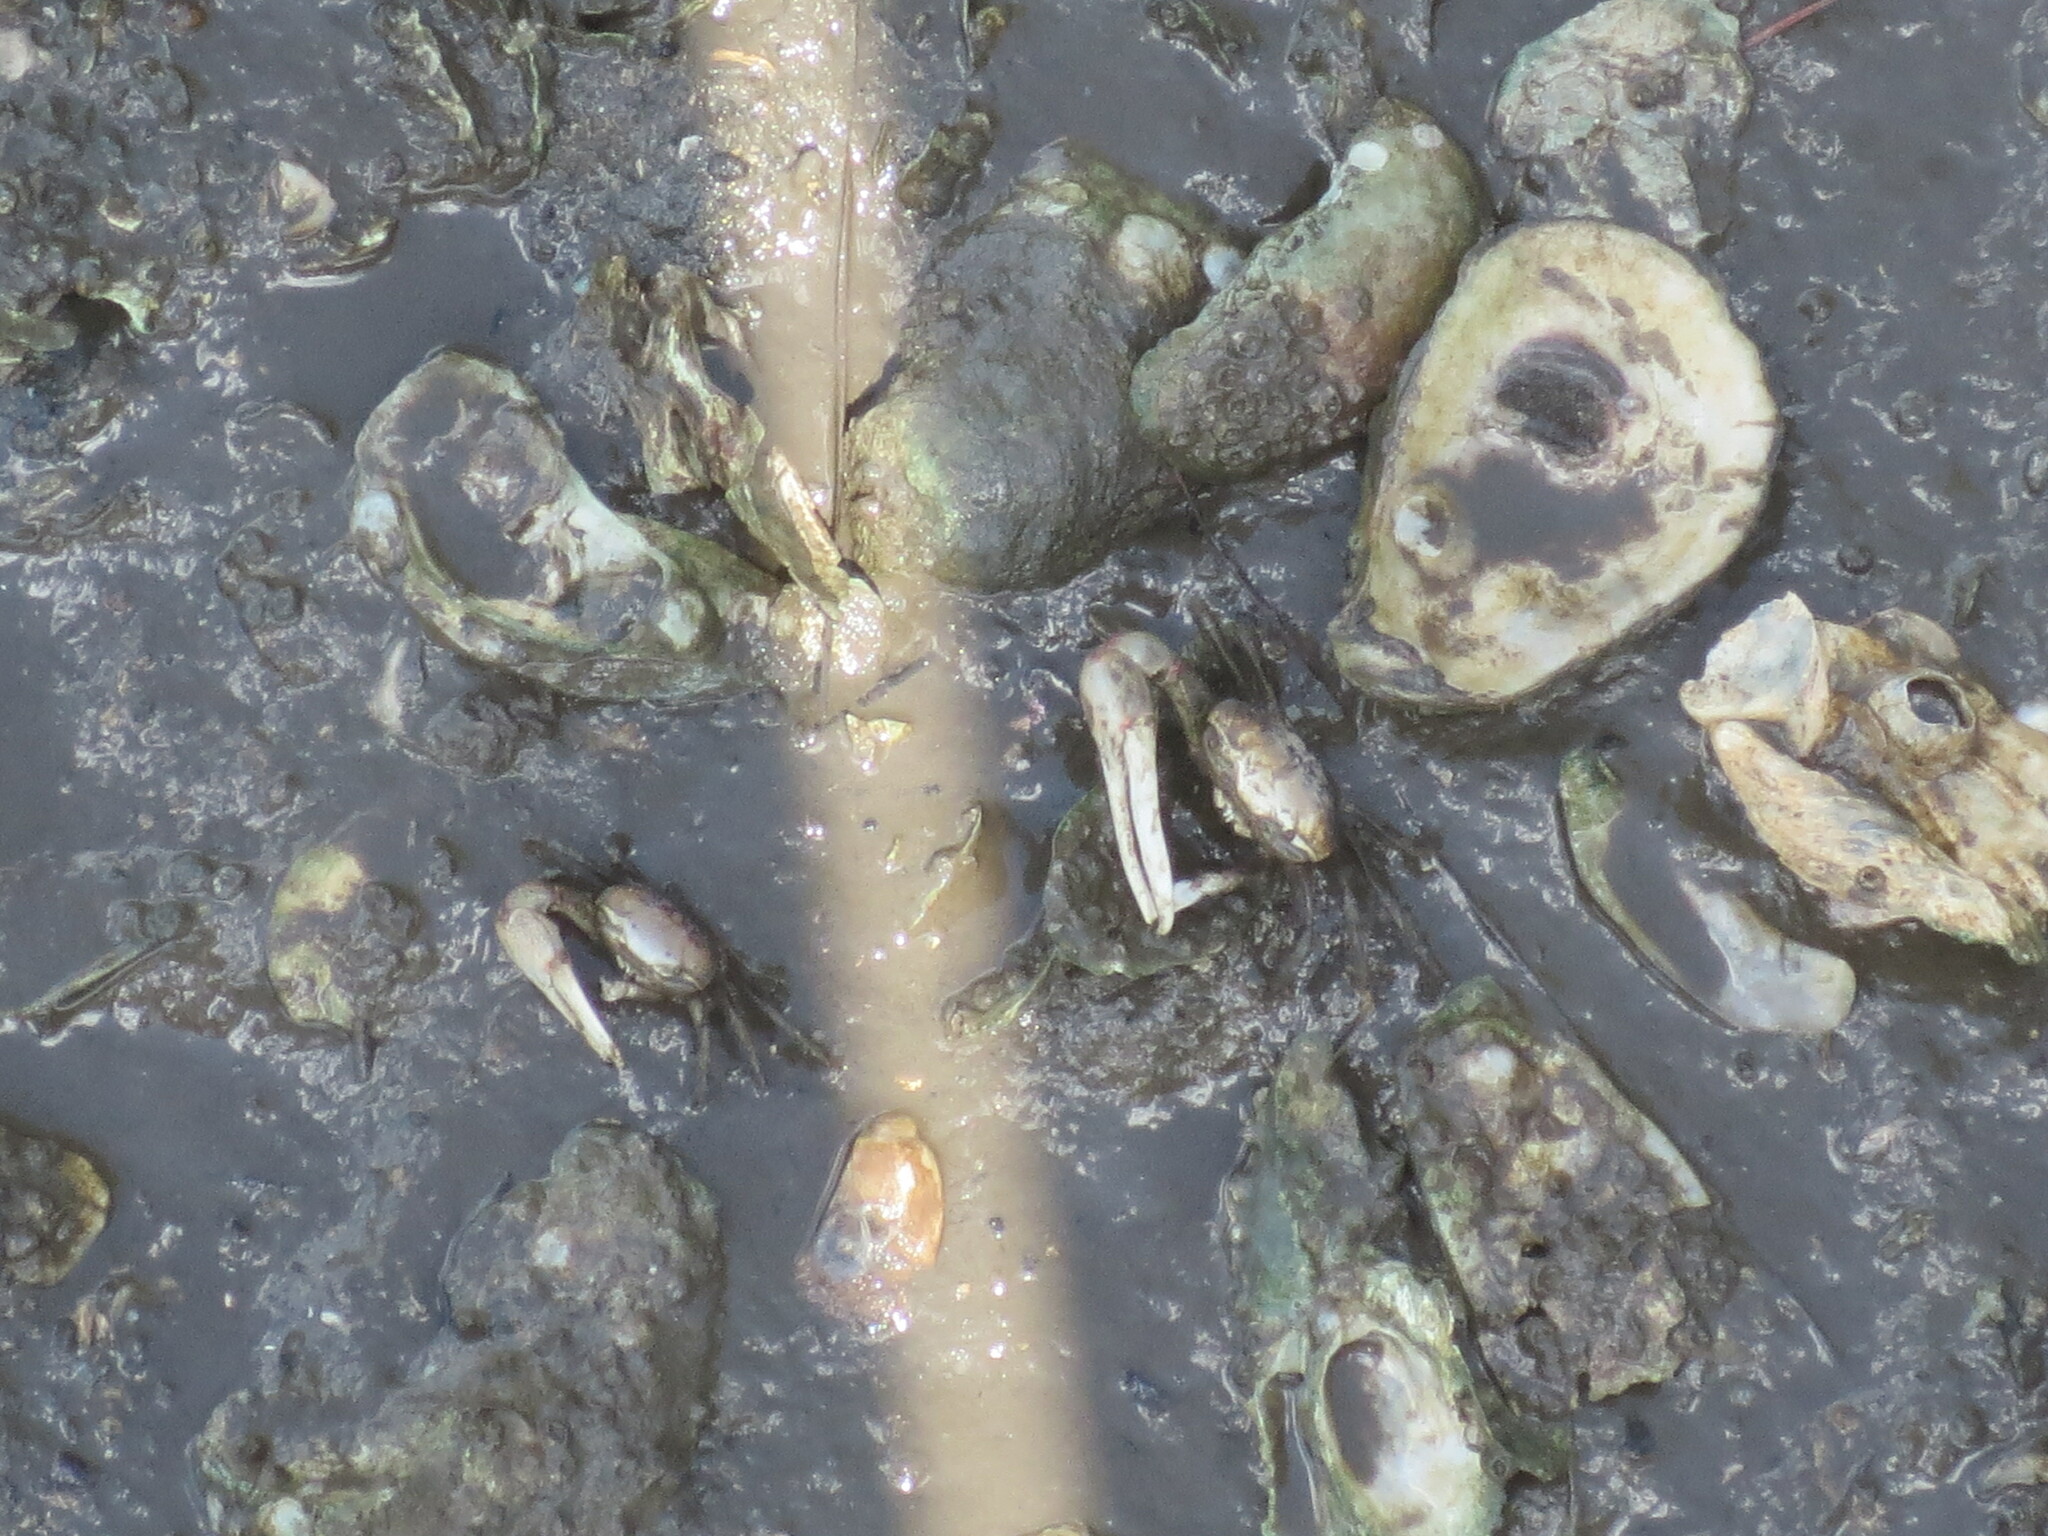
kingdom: Animalia
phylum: Arthropoda
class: Malacostraca
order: Decapoda
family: Ocypodidae
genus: Minuca
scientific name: Minuca minax
